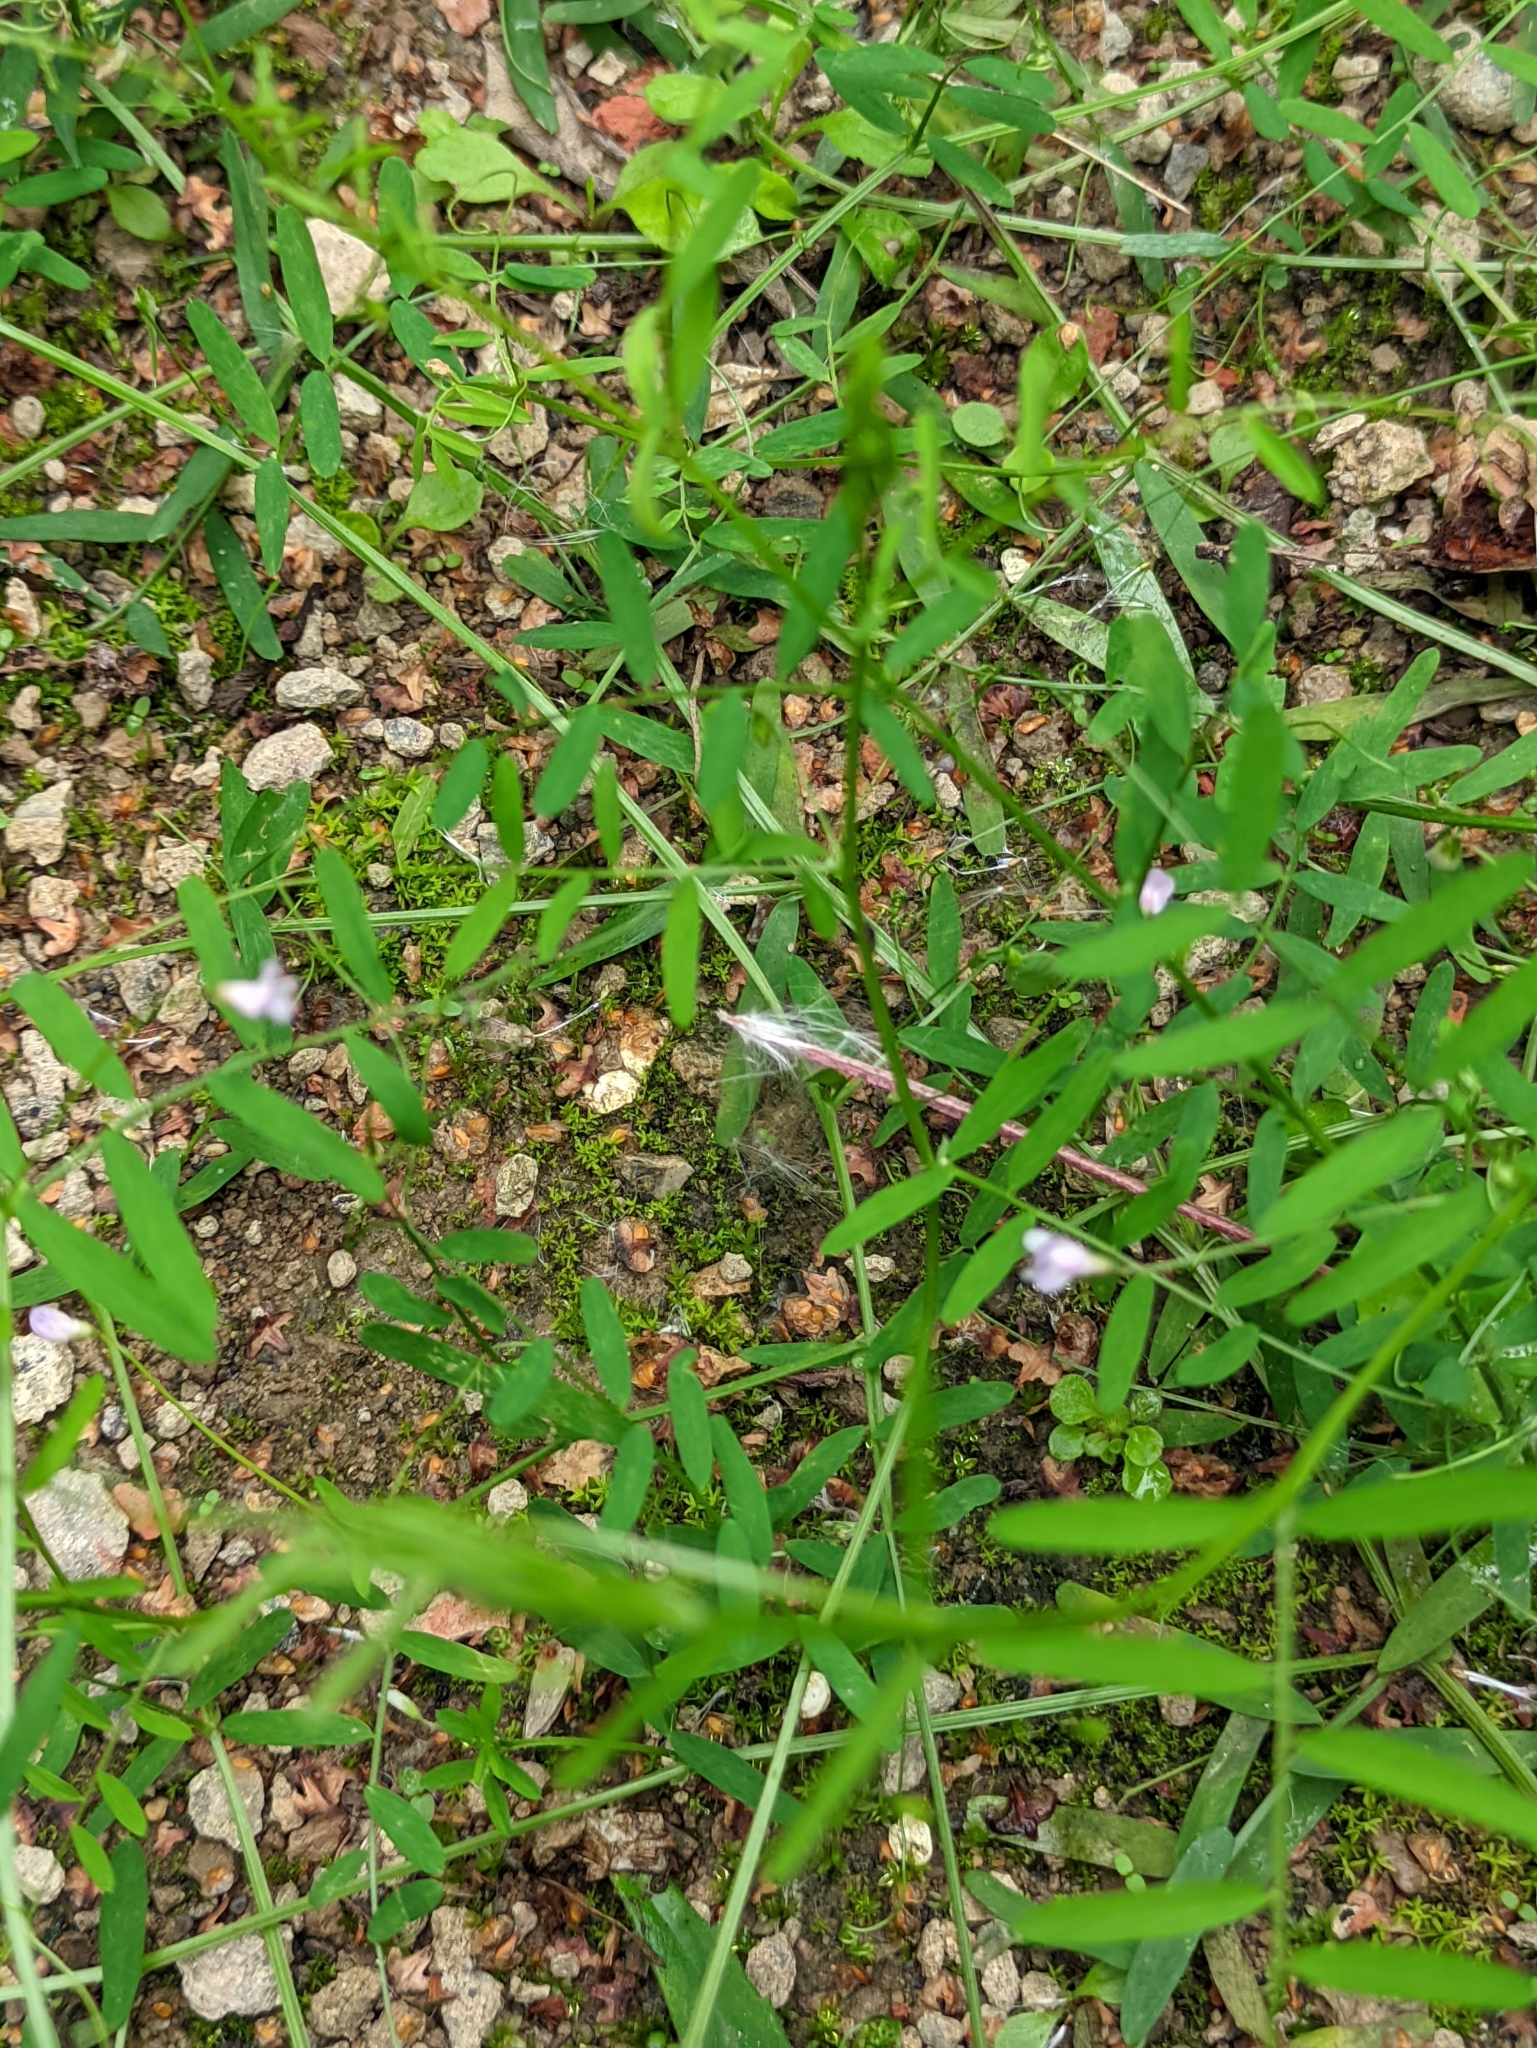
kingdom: Plantae
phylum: Tracheophyta
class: Magnoliopsida
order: Fabales
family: Fabaceae
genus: Vicia
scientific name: Vicia tetrasperma
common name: Smooth tare
